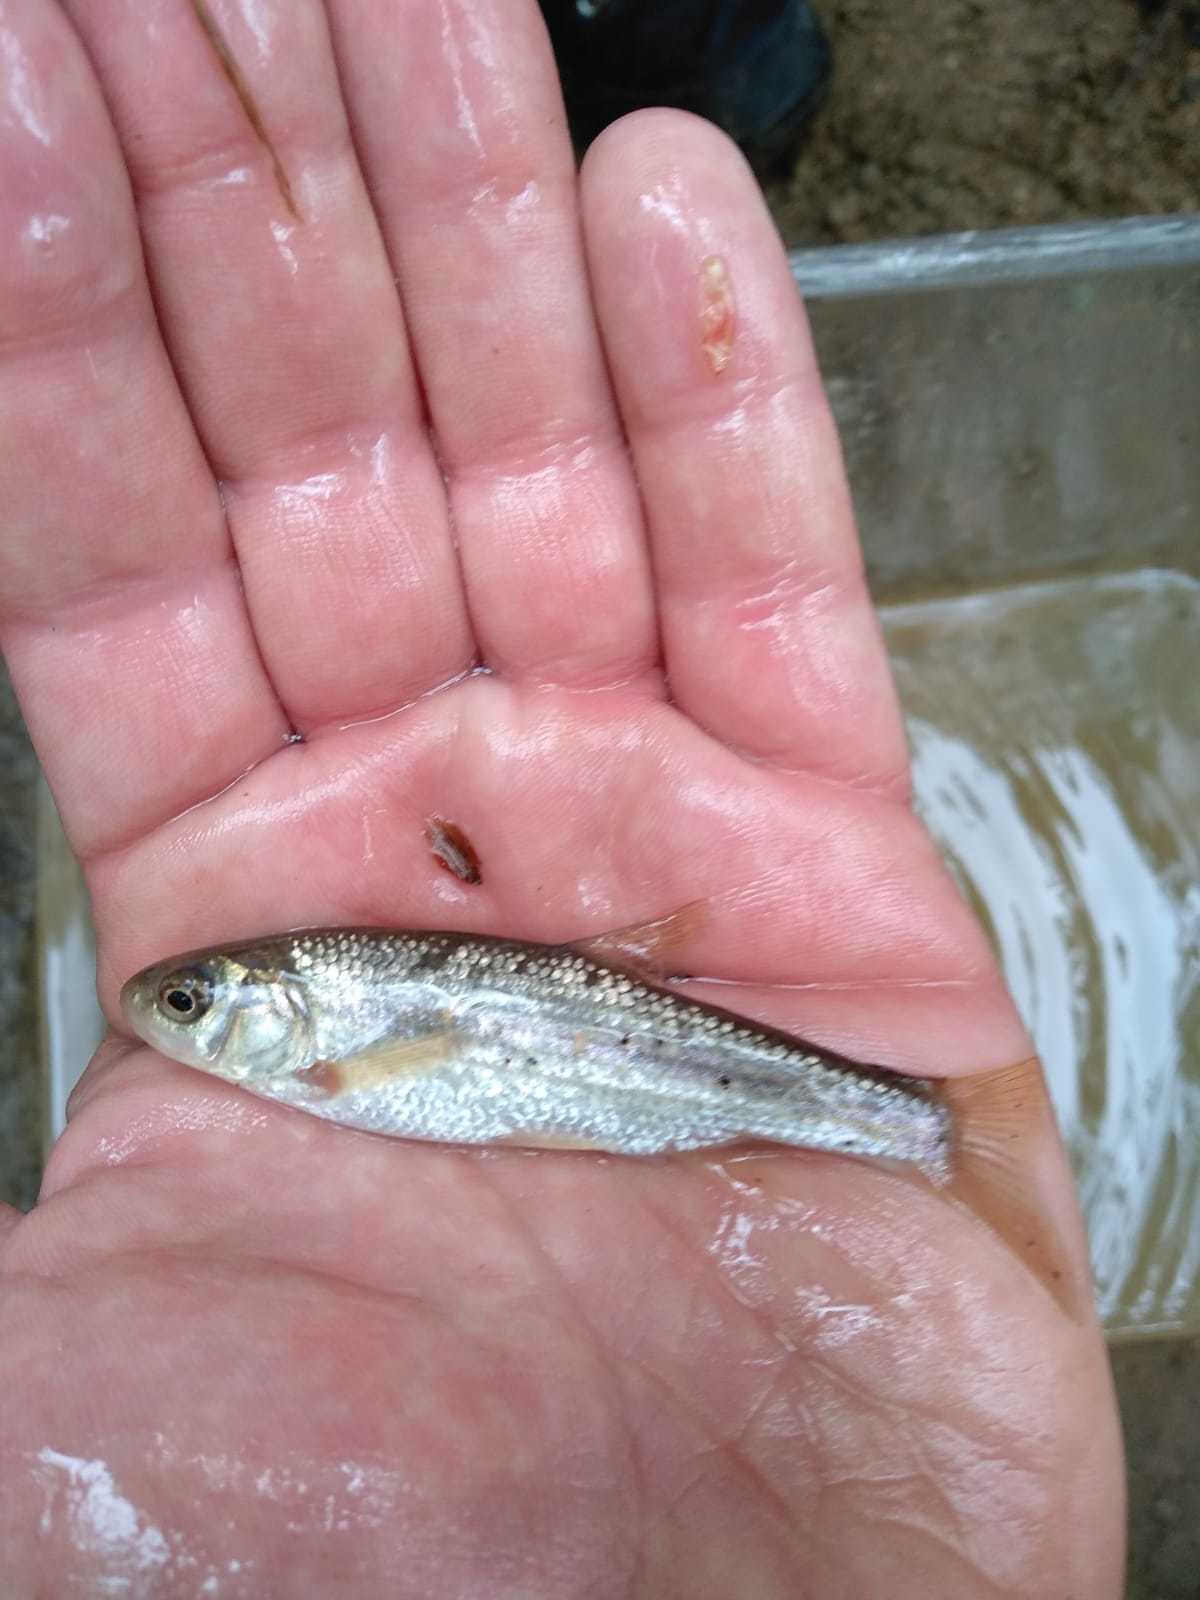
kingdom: Animalia
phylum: Chordata
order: Cypriniformes
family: Cyprinidae
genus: Telestes
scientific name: Telestes muticellus
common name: Italian riffle dace
